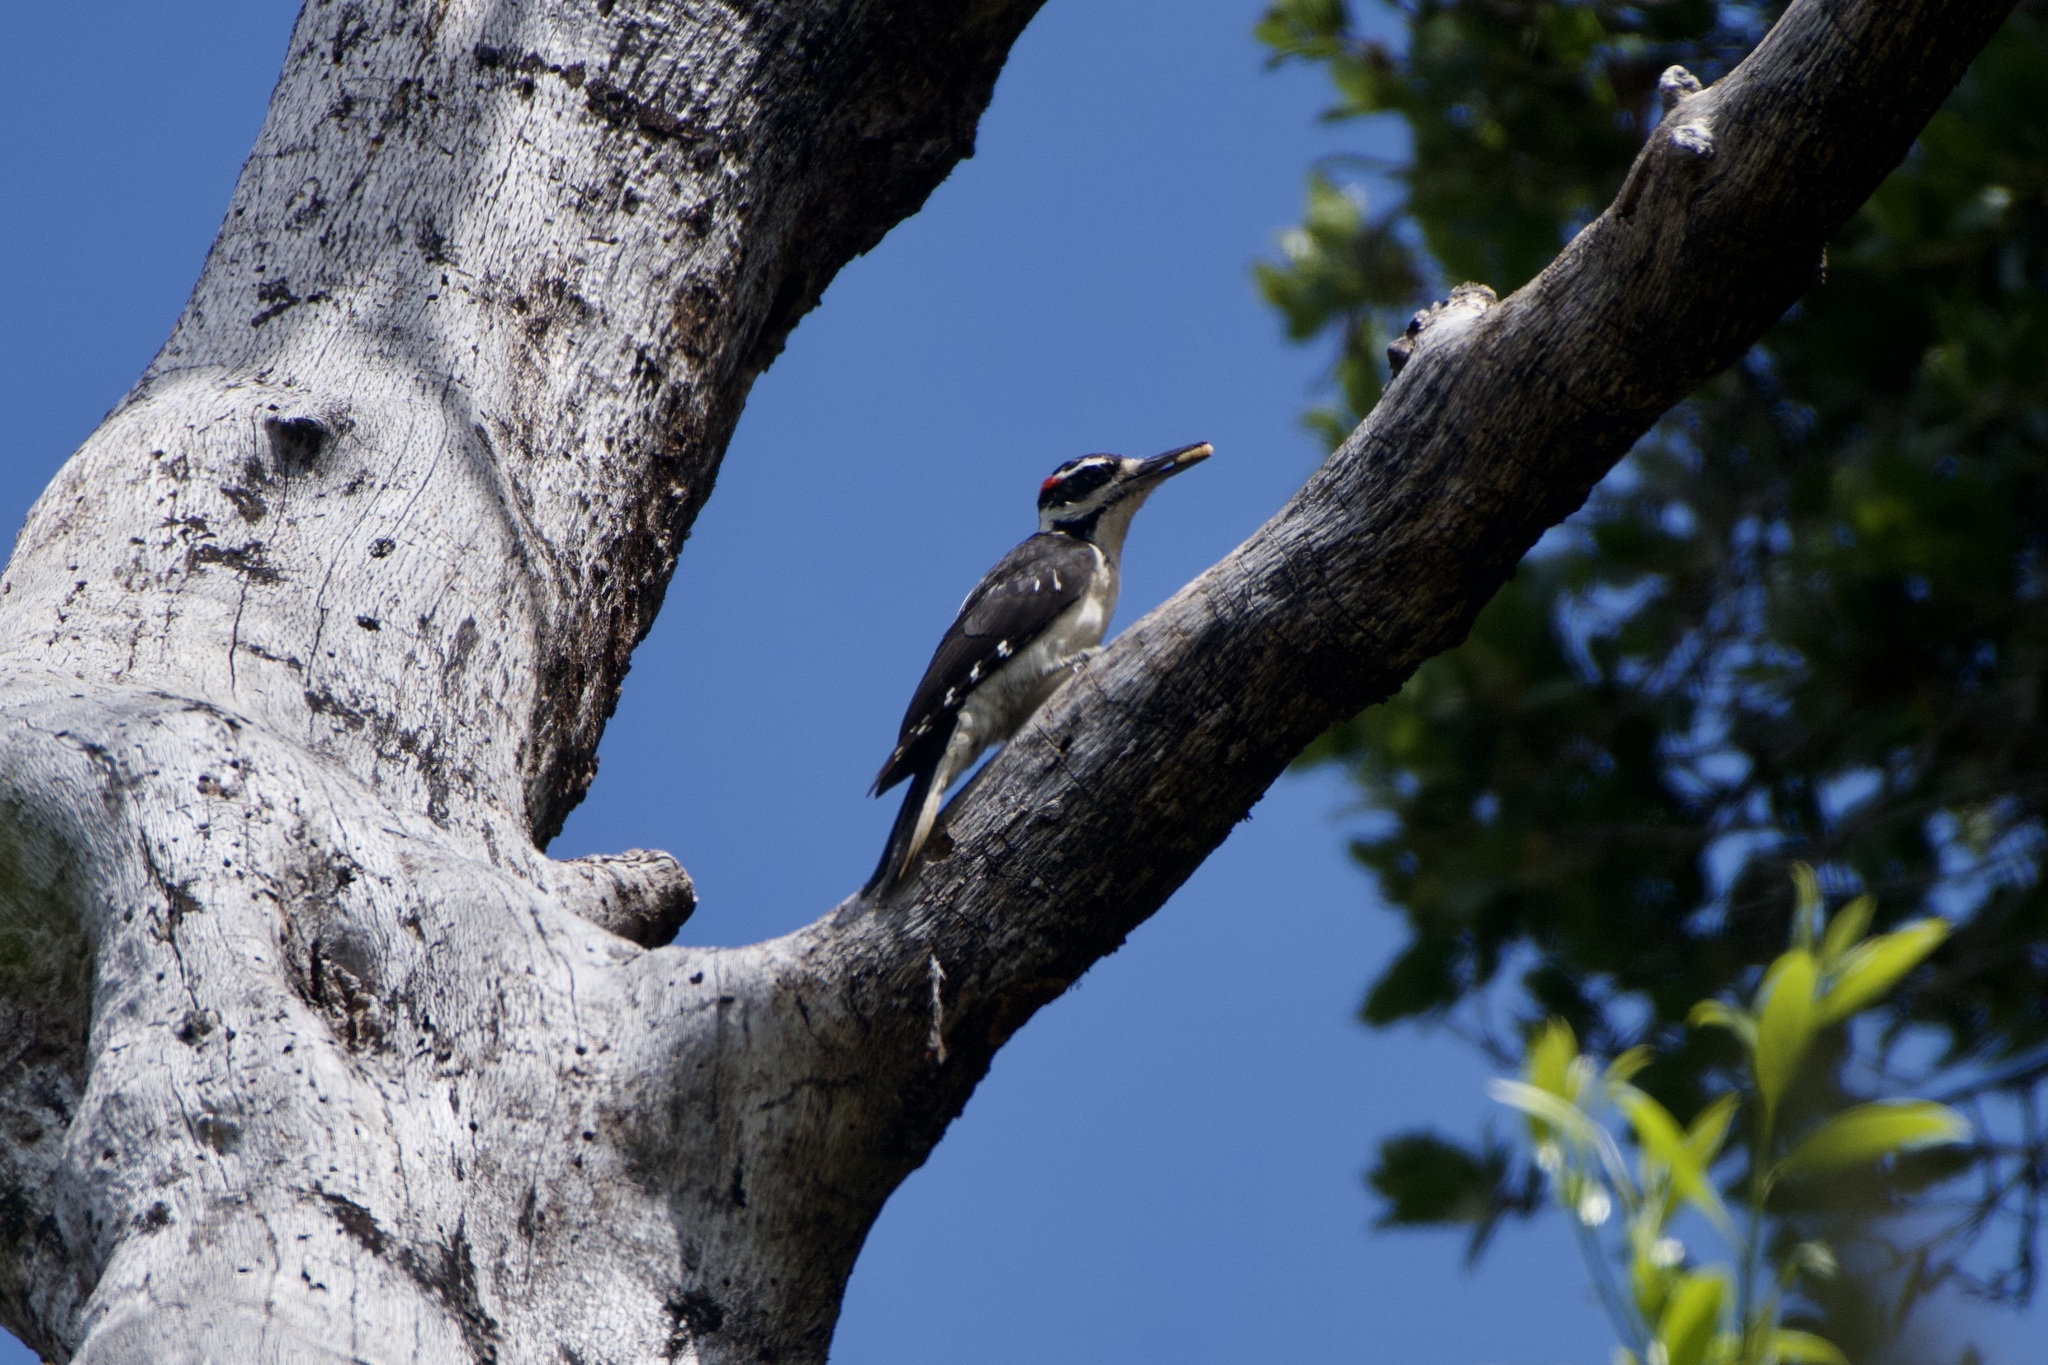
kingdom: Animalia
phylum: Chordata
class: Aves
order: Piciformes
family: Picidae
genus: Leuconotopicus
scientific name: Leuconotopicus villosus
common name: Hairy woodpecker
